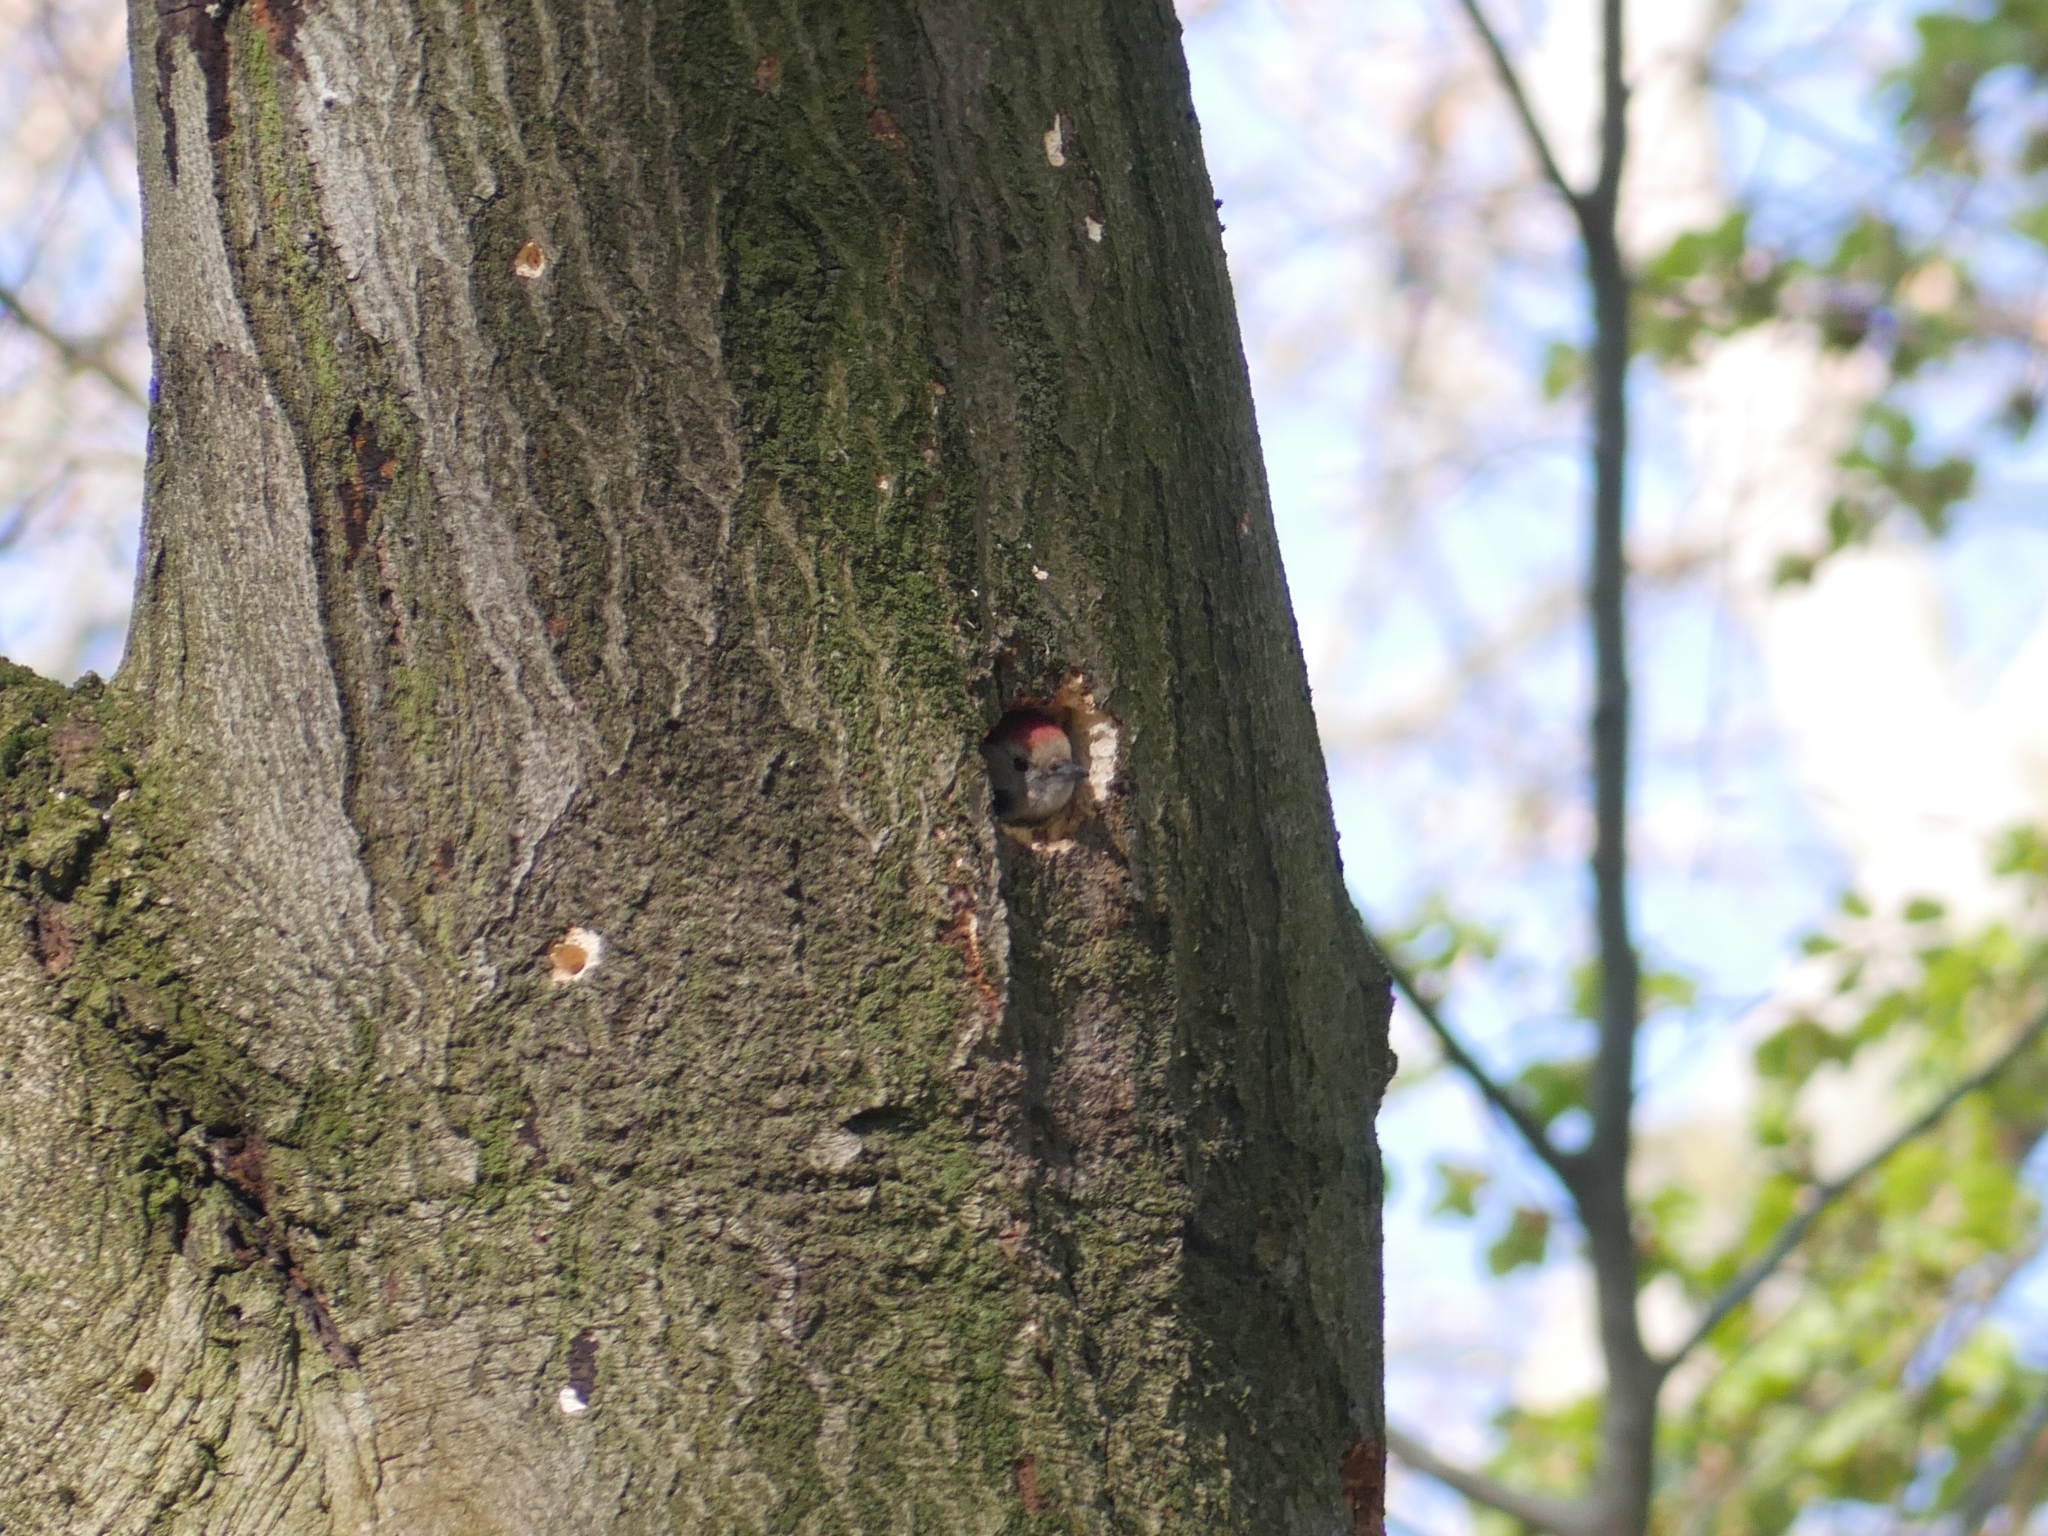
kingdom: Animalia
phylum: Chordata
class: Aves
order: Piciformes
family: Picidae
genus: Dendrocoptes
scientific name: Dendrocoptes medius
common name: Middle spotted woodpecker
